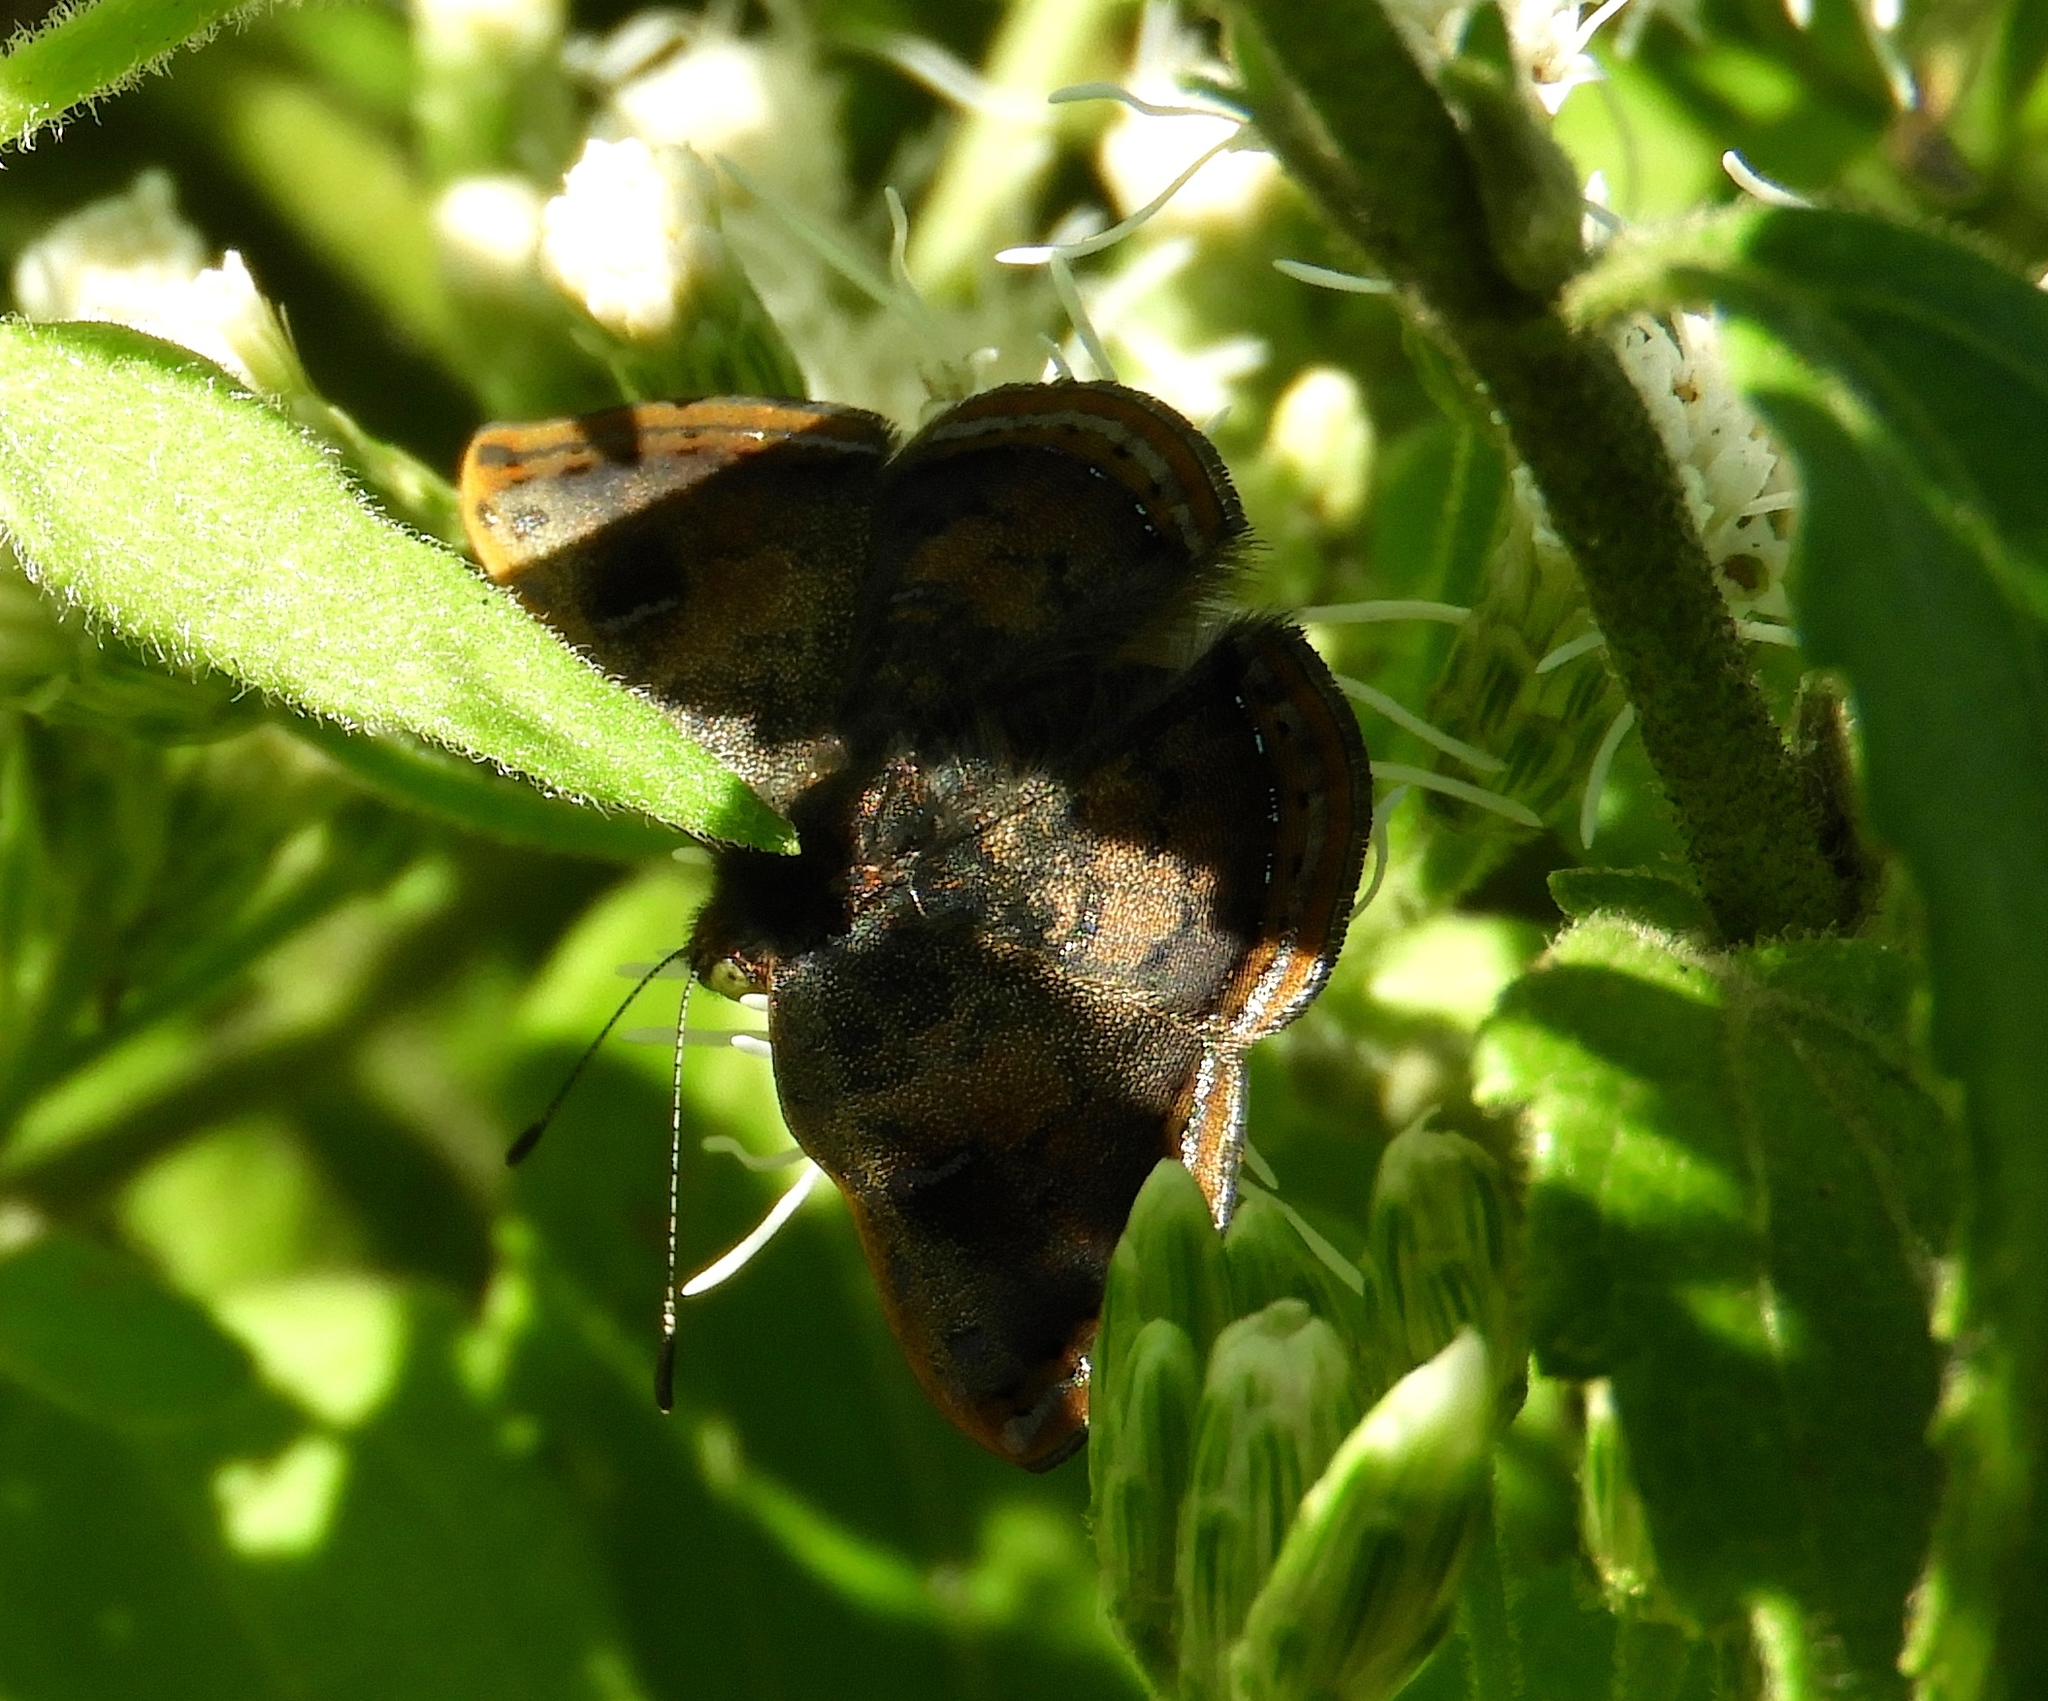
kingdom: Animalia
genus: Caria
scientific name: Caria ino
